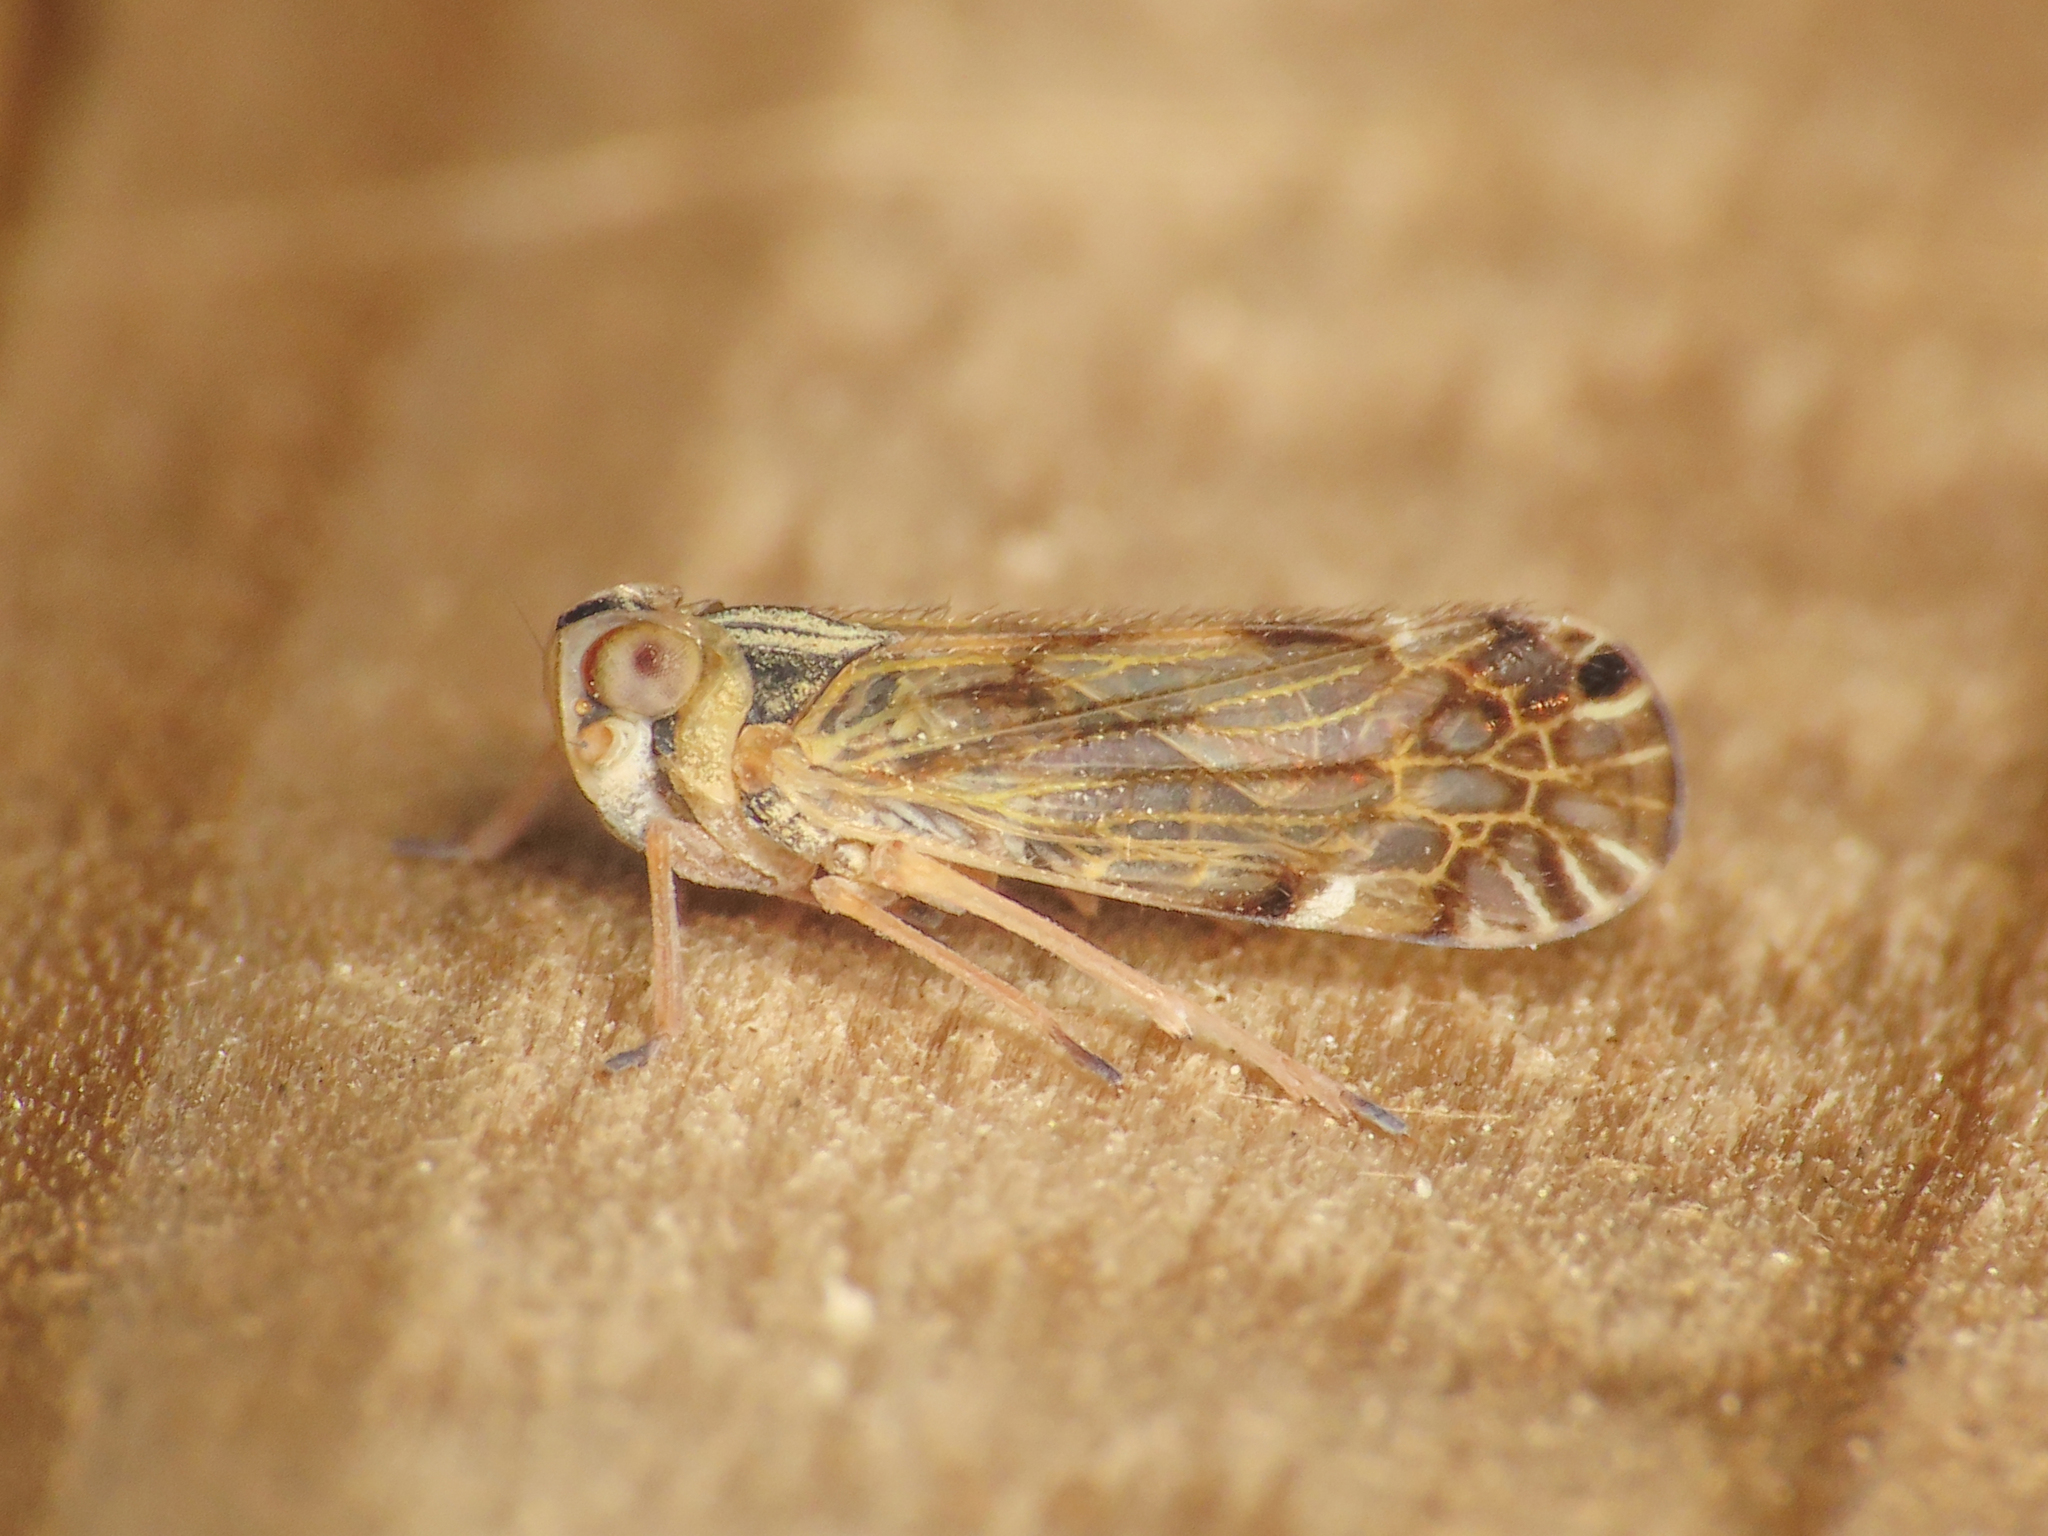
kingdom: Animalia
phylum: Arthropoda
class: Insecta
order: Hemiptera
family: Cixiidae
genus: Entithena
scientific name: Entithena musiva
